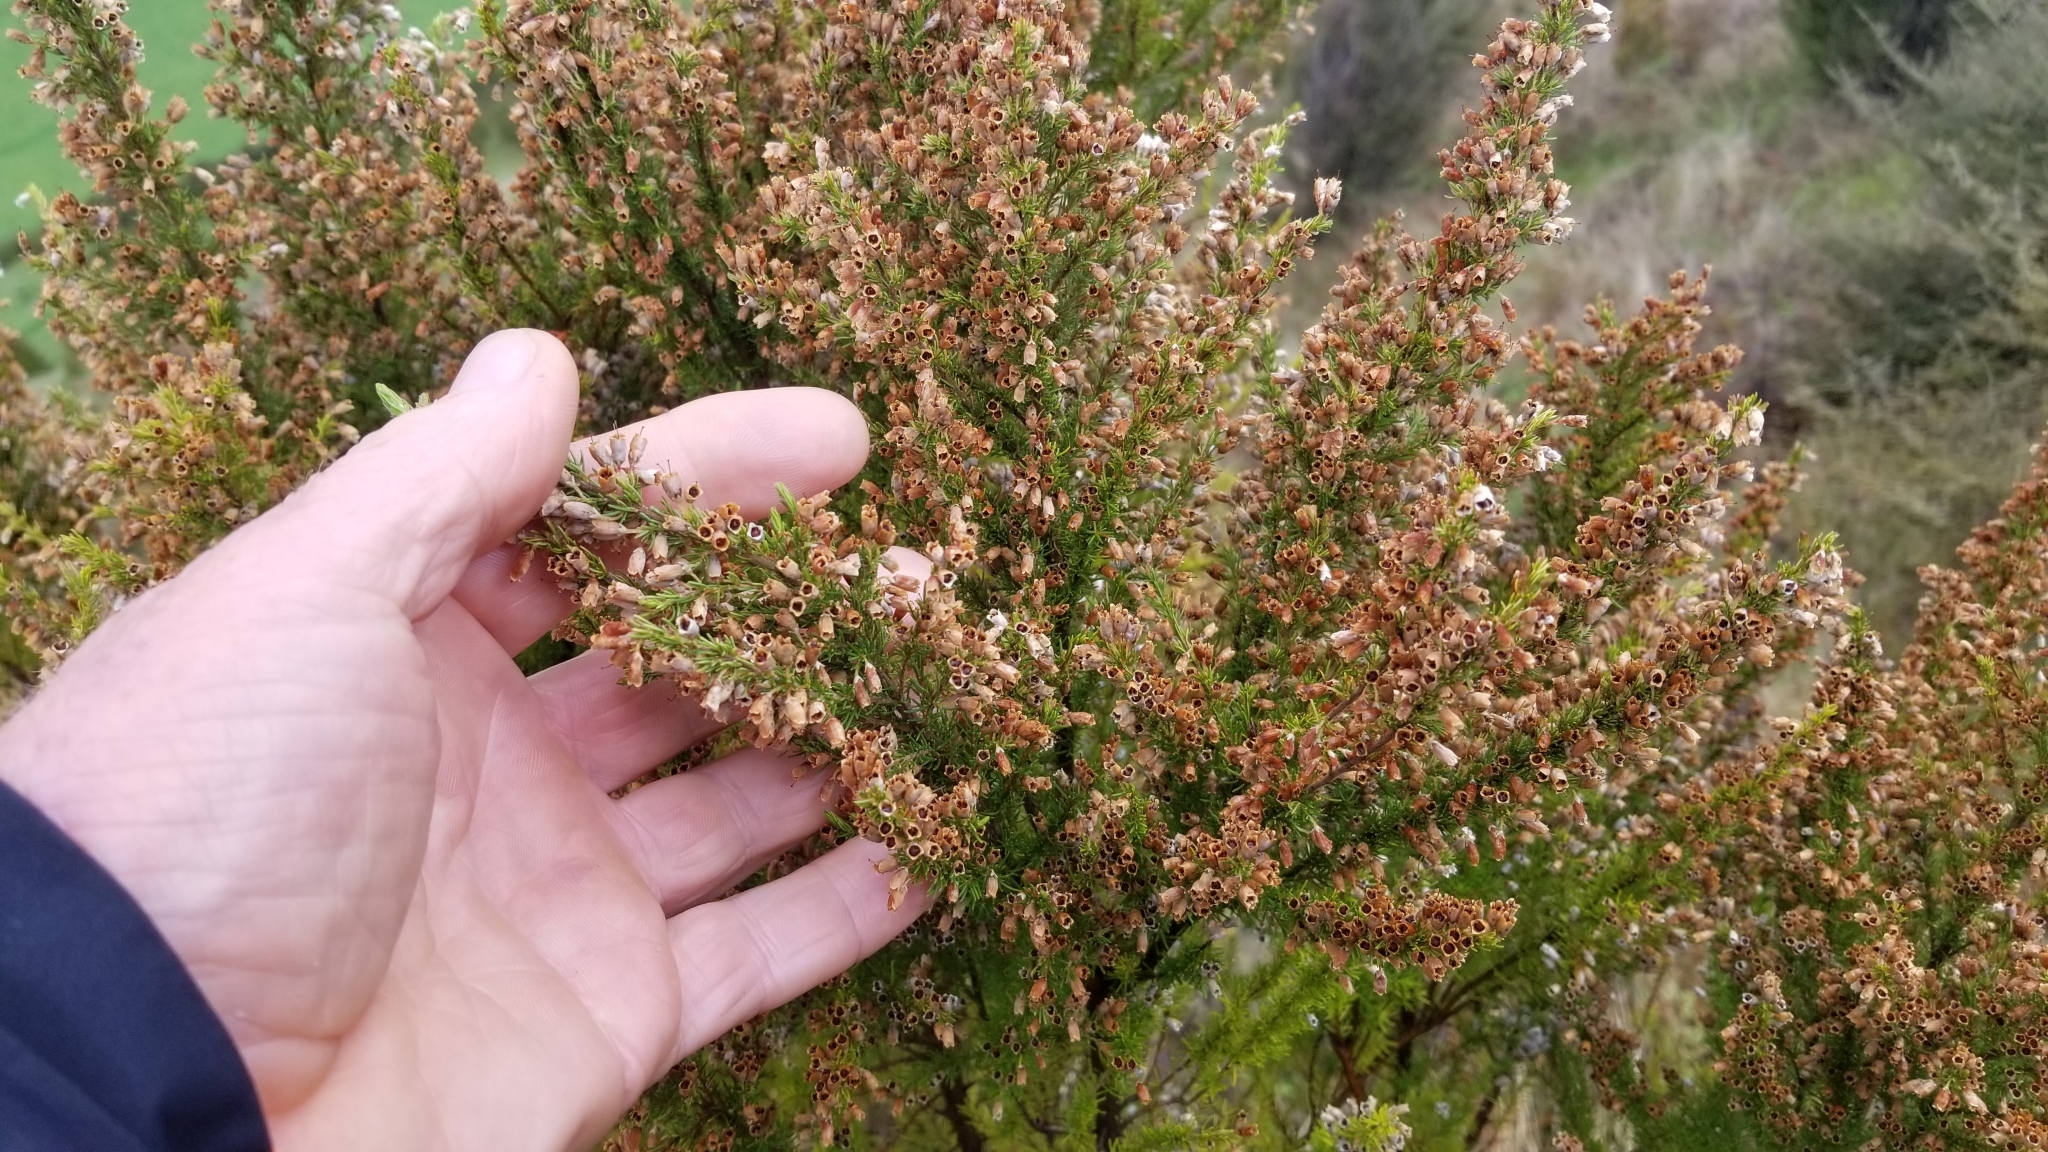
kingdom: Plantae
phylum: Tracheophyta
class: Magnoliopsida
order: Ericales
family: Ericaceae
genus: Erica
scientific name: Erica lusitanica
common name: Spanish heath
